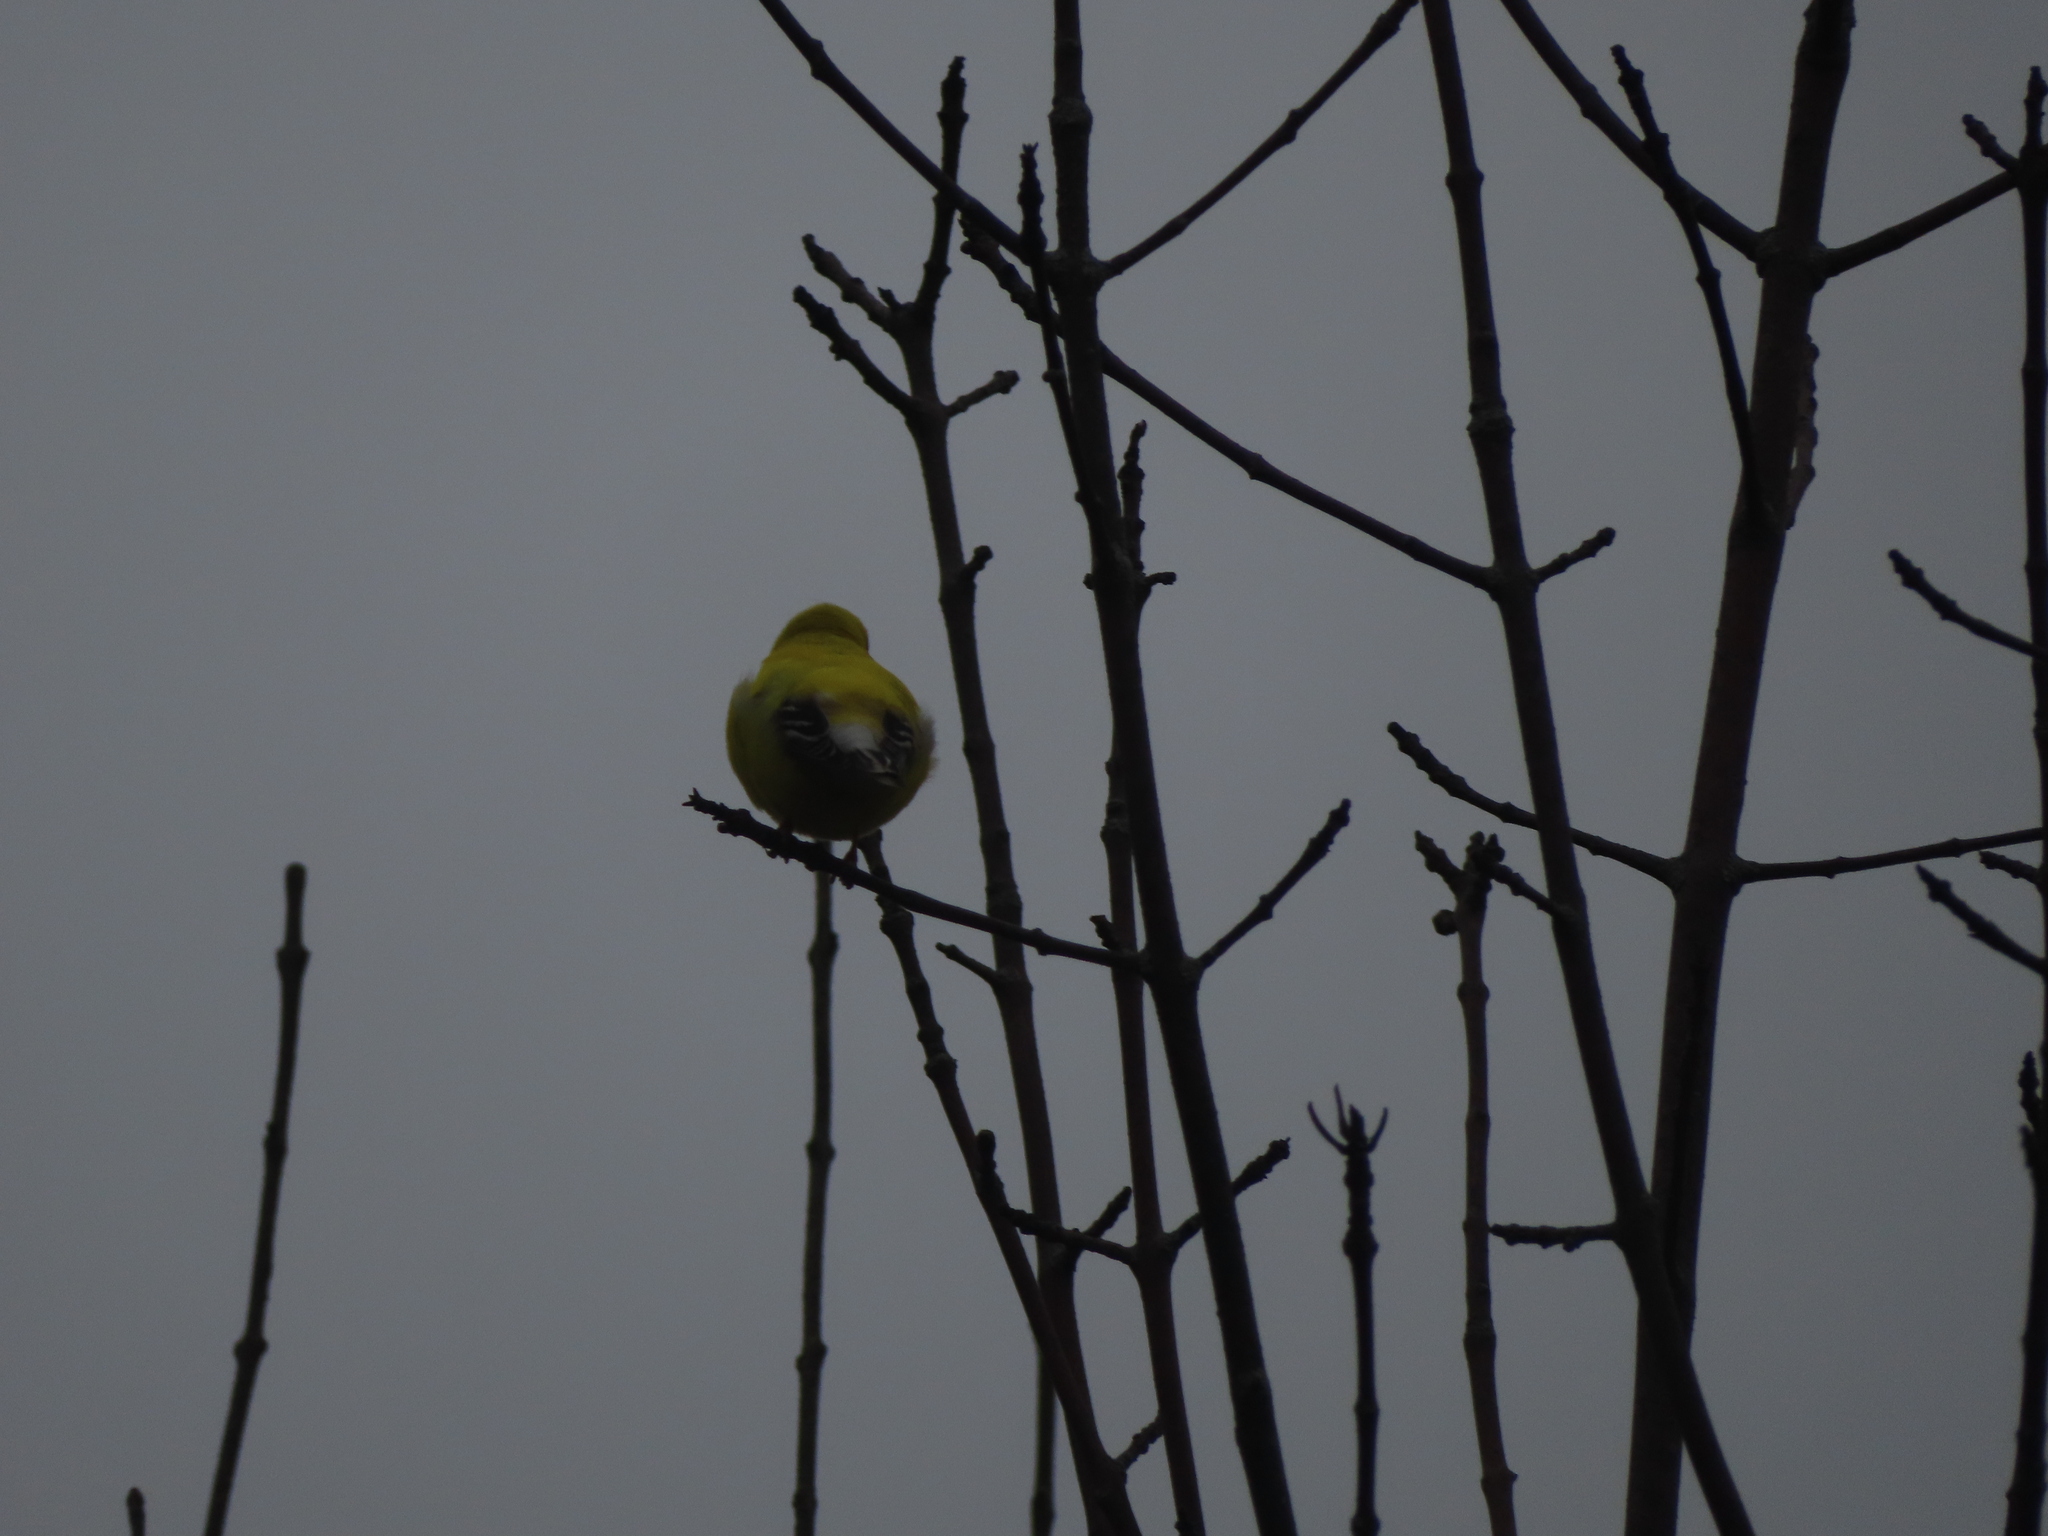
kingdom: Animalia
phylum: Chordata
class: Aves
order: Passeriformes
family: Fringillidae
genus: Spinus
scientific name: Spinus tristis
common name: American goldfinch
